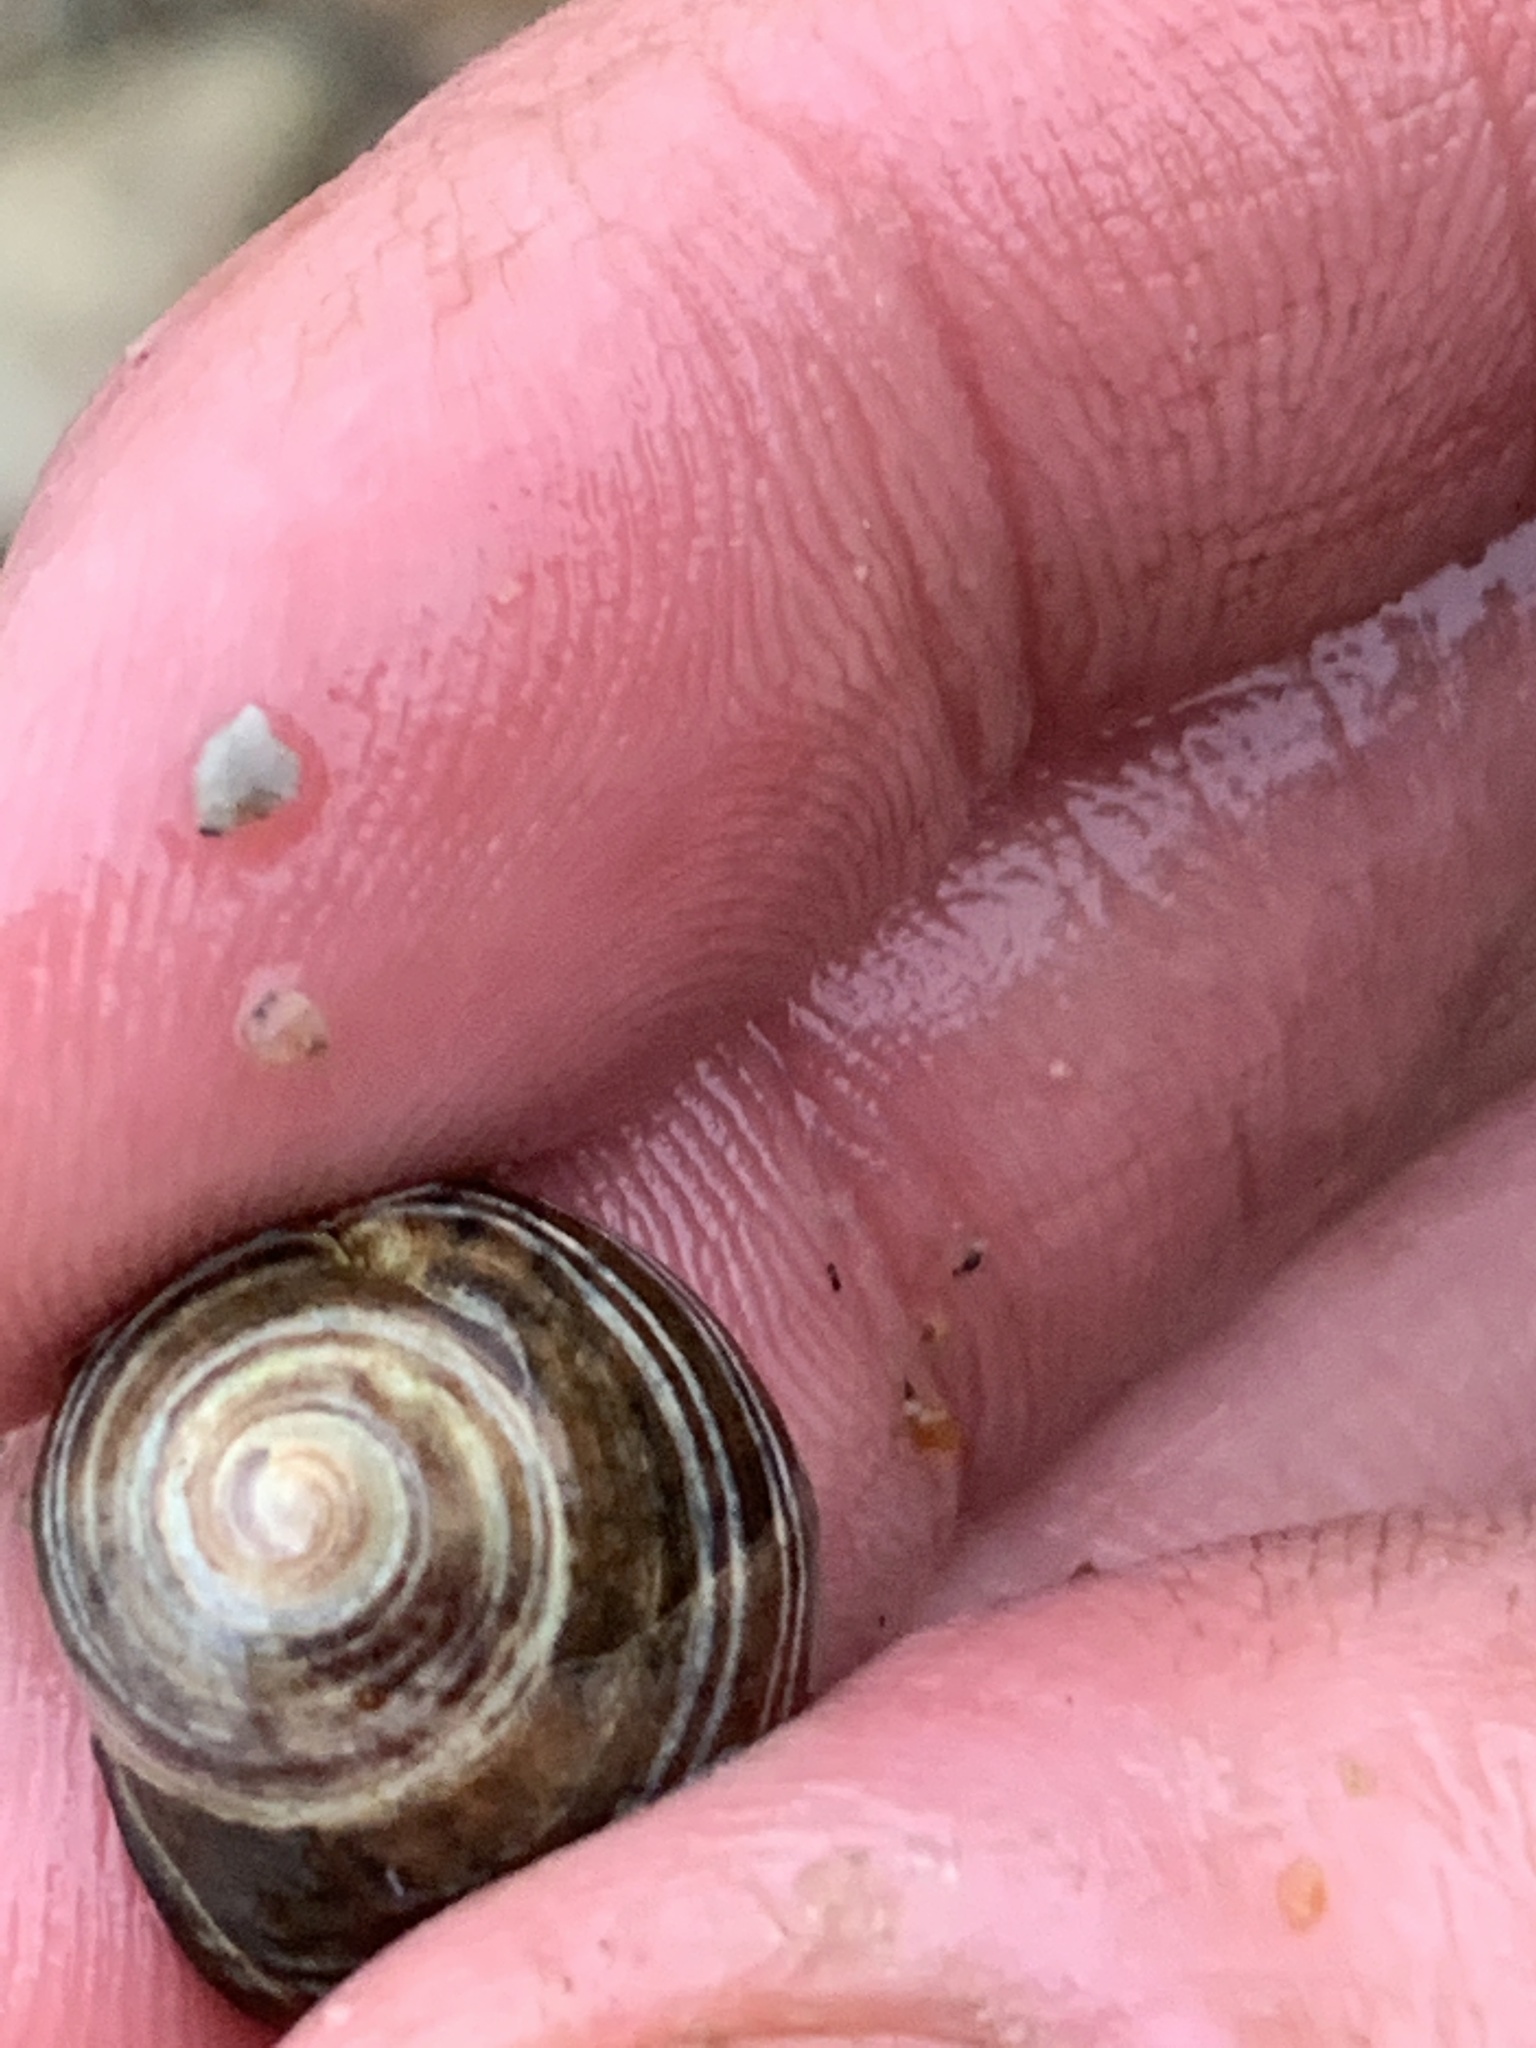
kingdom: Animalia
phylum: Mollusca
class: Gastropoda
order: Littorinimorpha
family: Littorinidae
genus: Littorina
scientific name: Littorina littorea
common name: Common periwinkle
